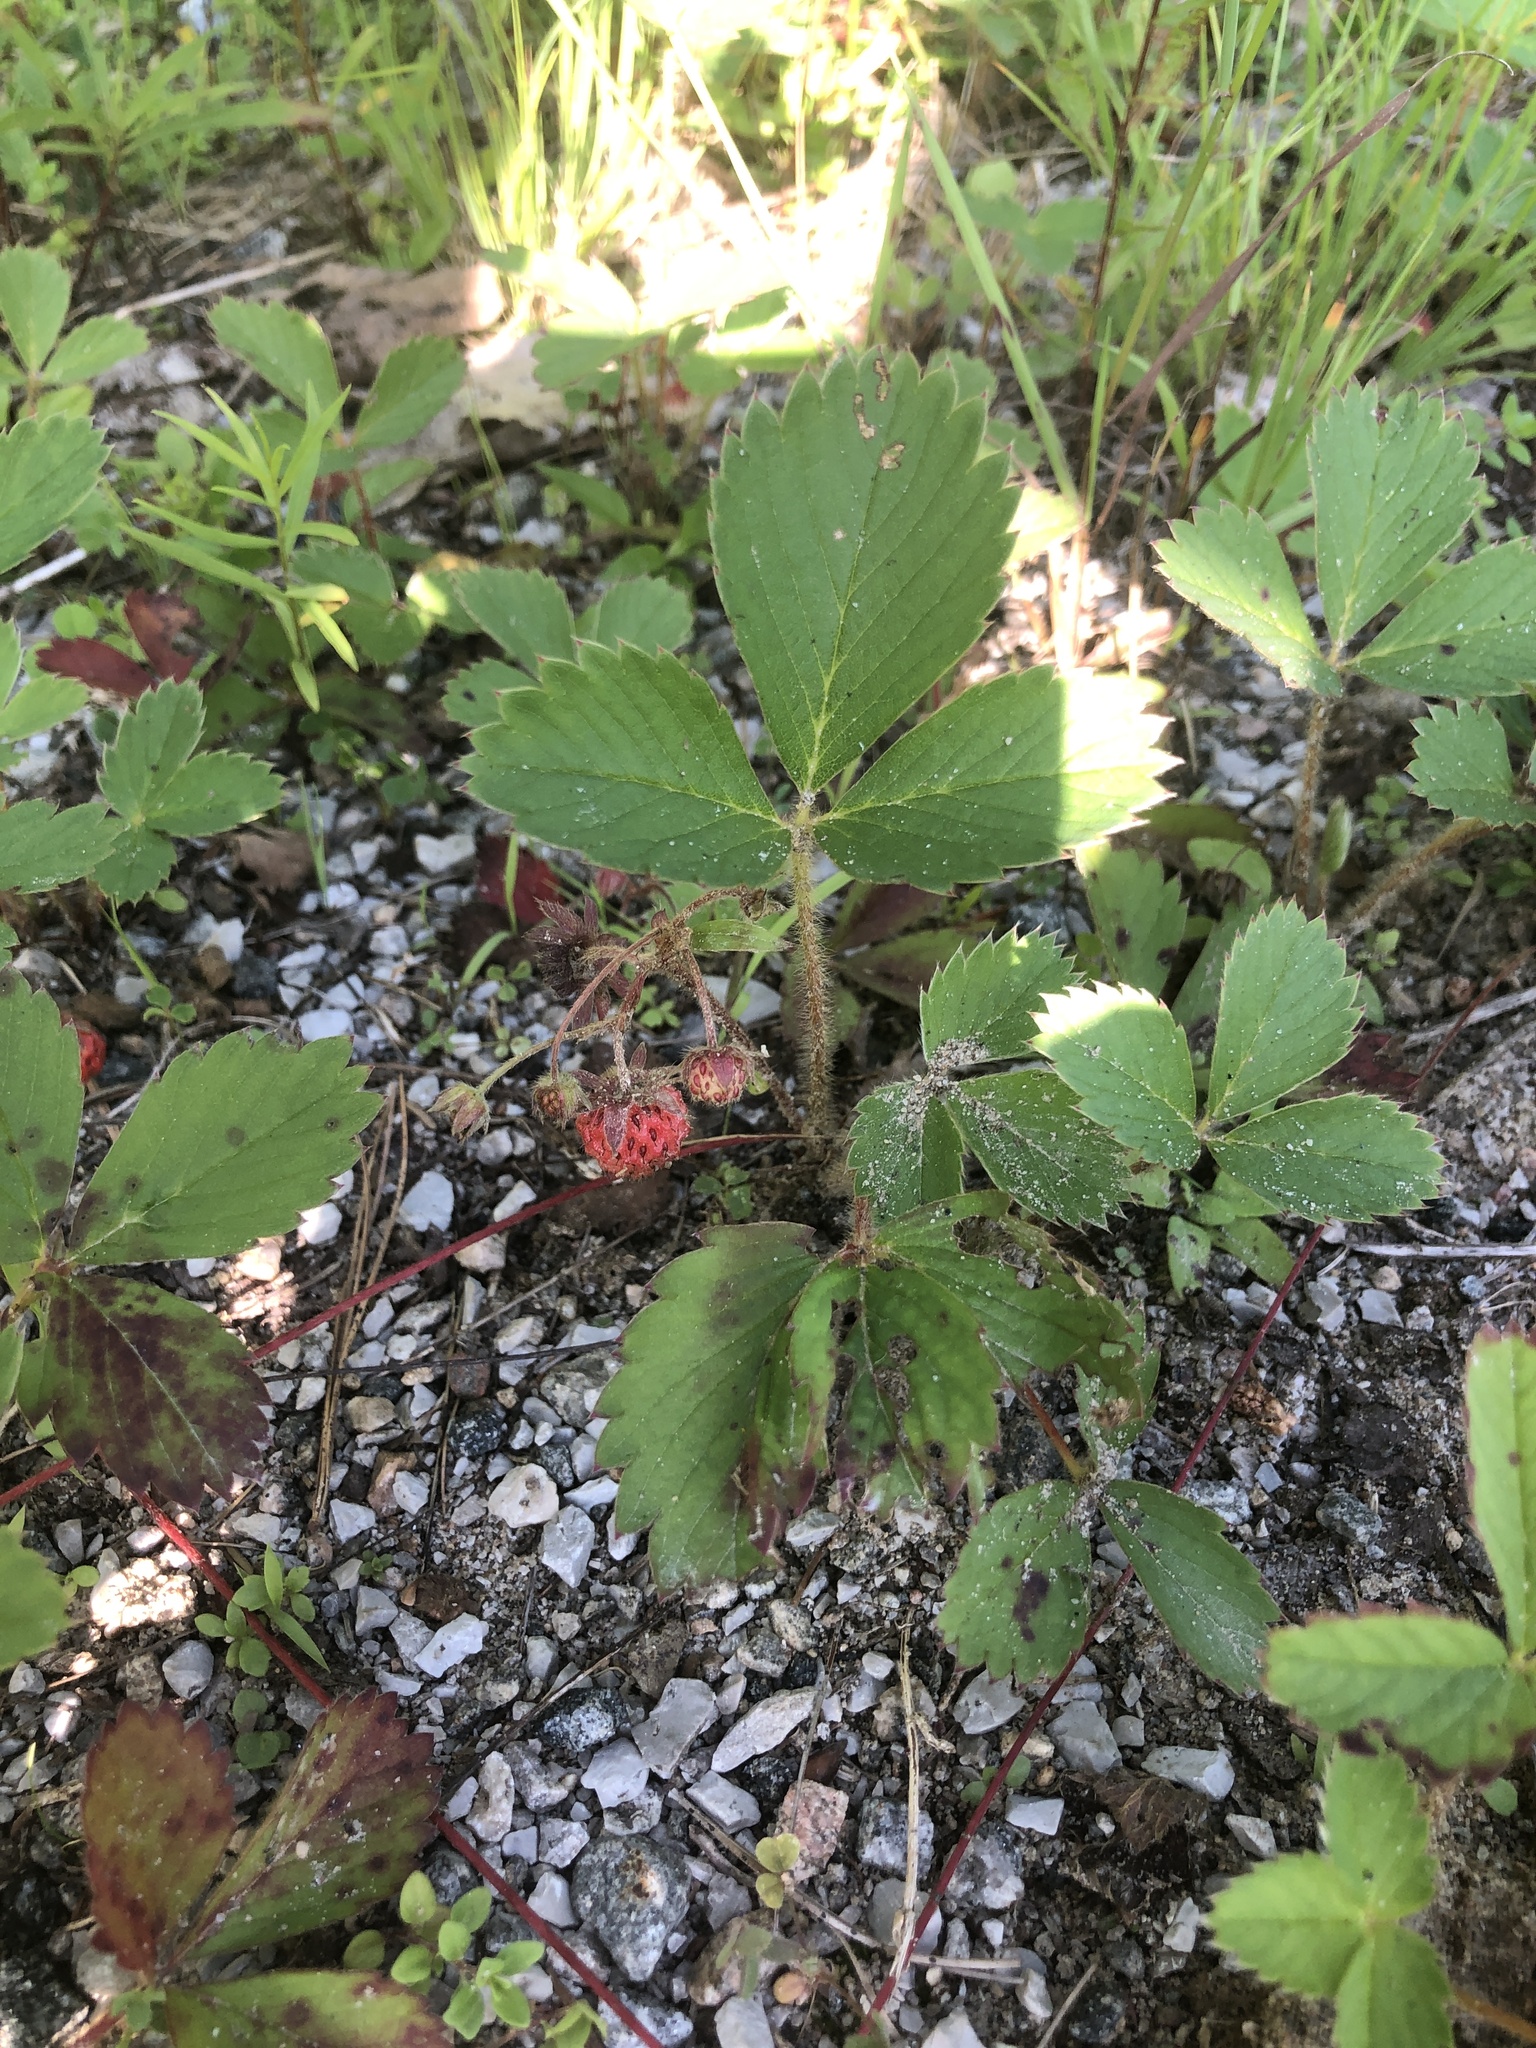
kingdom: Plantae
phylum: Tracheophyta
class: Magnoliopsida
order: Rosales
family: Rosaceae
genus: Fragaria
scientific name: Fragaria virginiana
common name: Thickleaved wild strawberry
